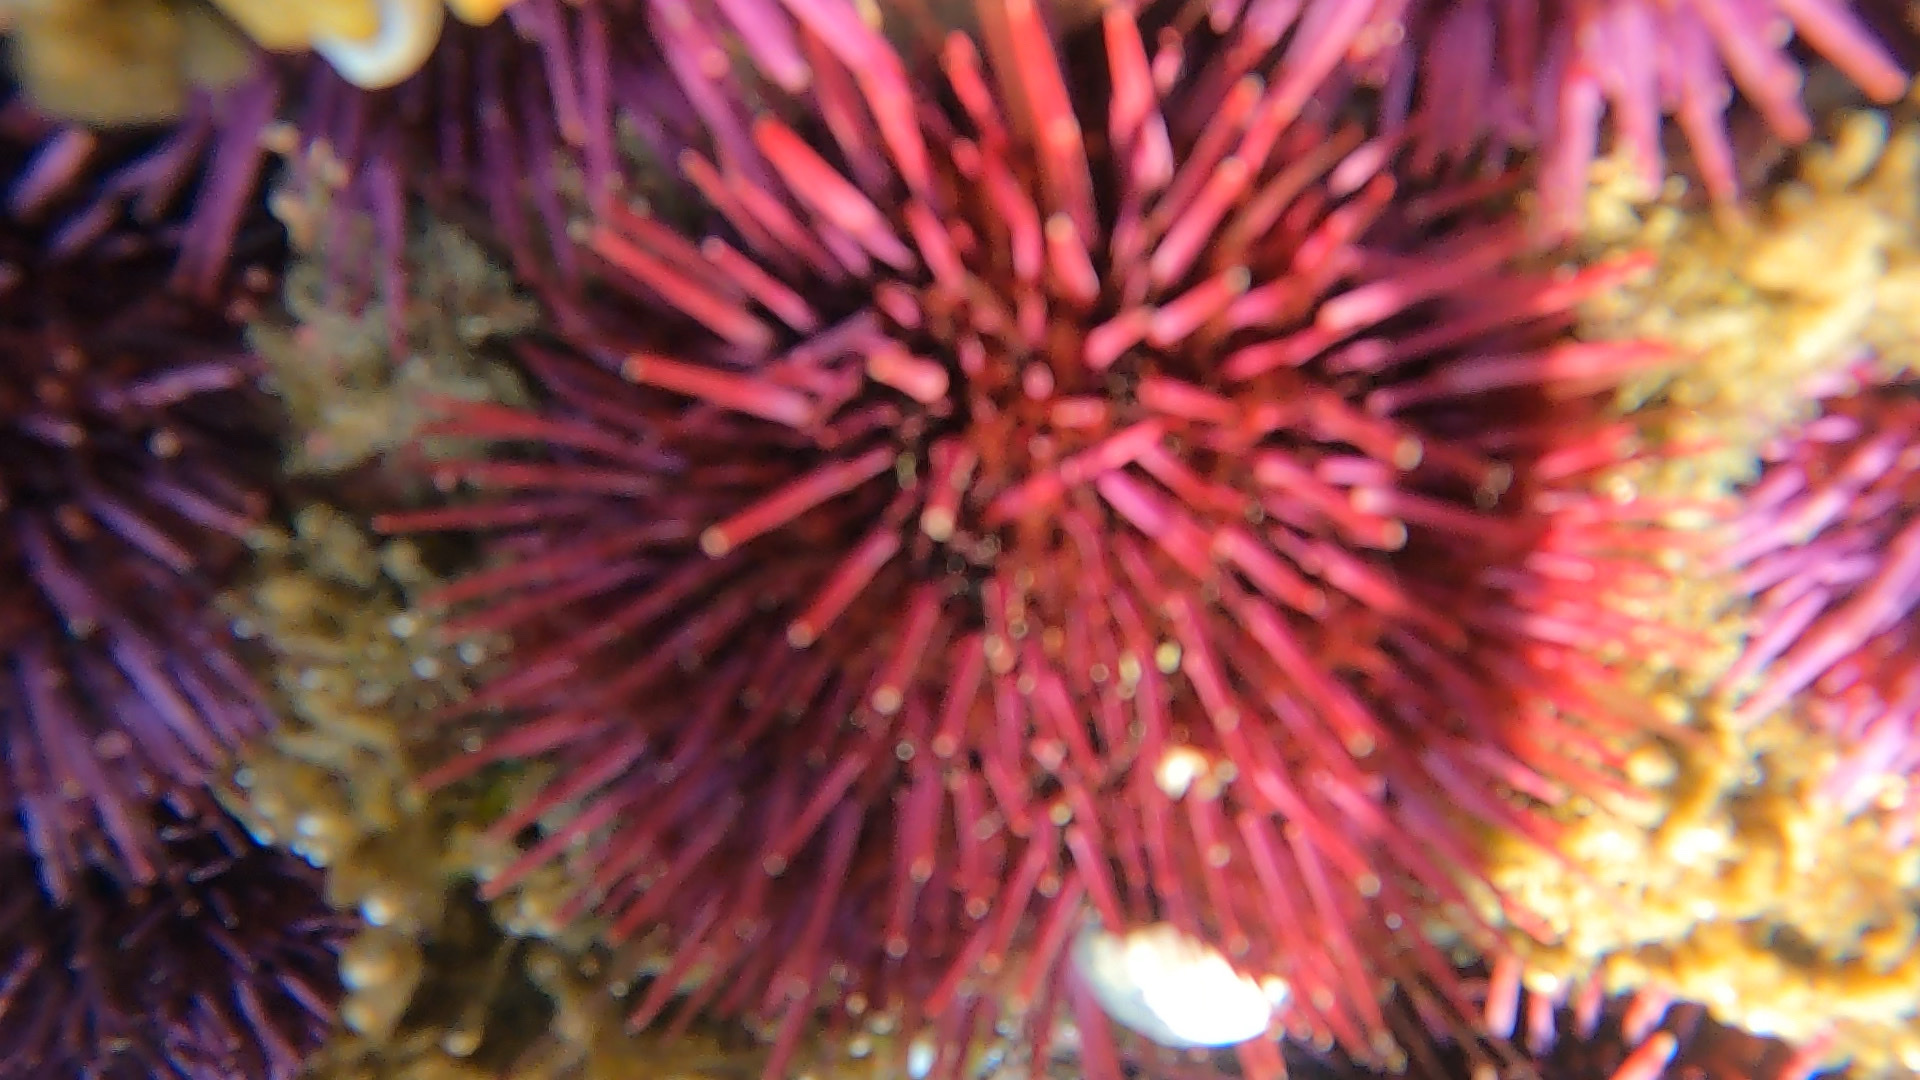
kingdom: Animalia
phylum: Echinodermata
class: Echinoidea
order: Camarodonta
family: Strongylocentrotidae
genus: Mesocentrotus
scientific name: Mesocentrotus franciscanus
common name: Red sea urchin
